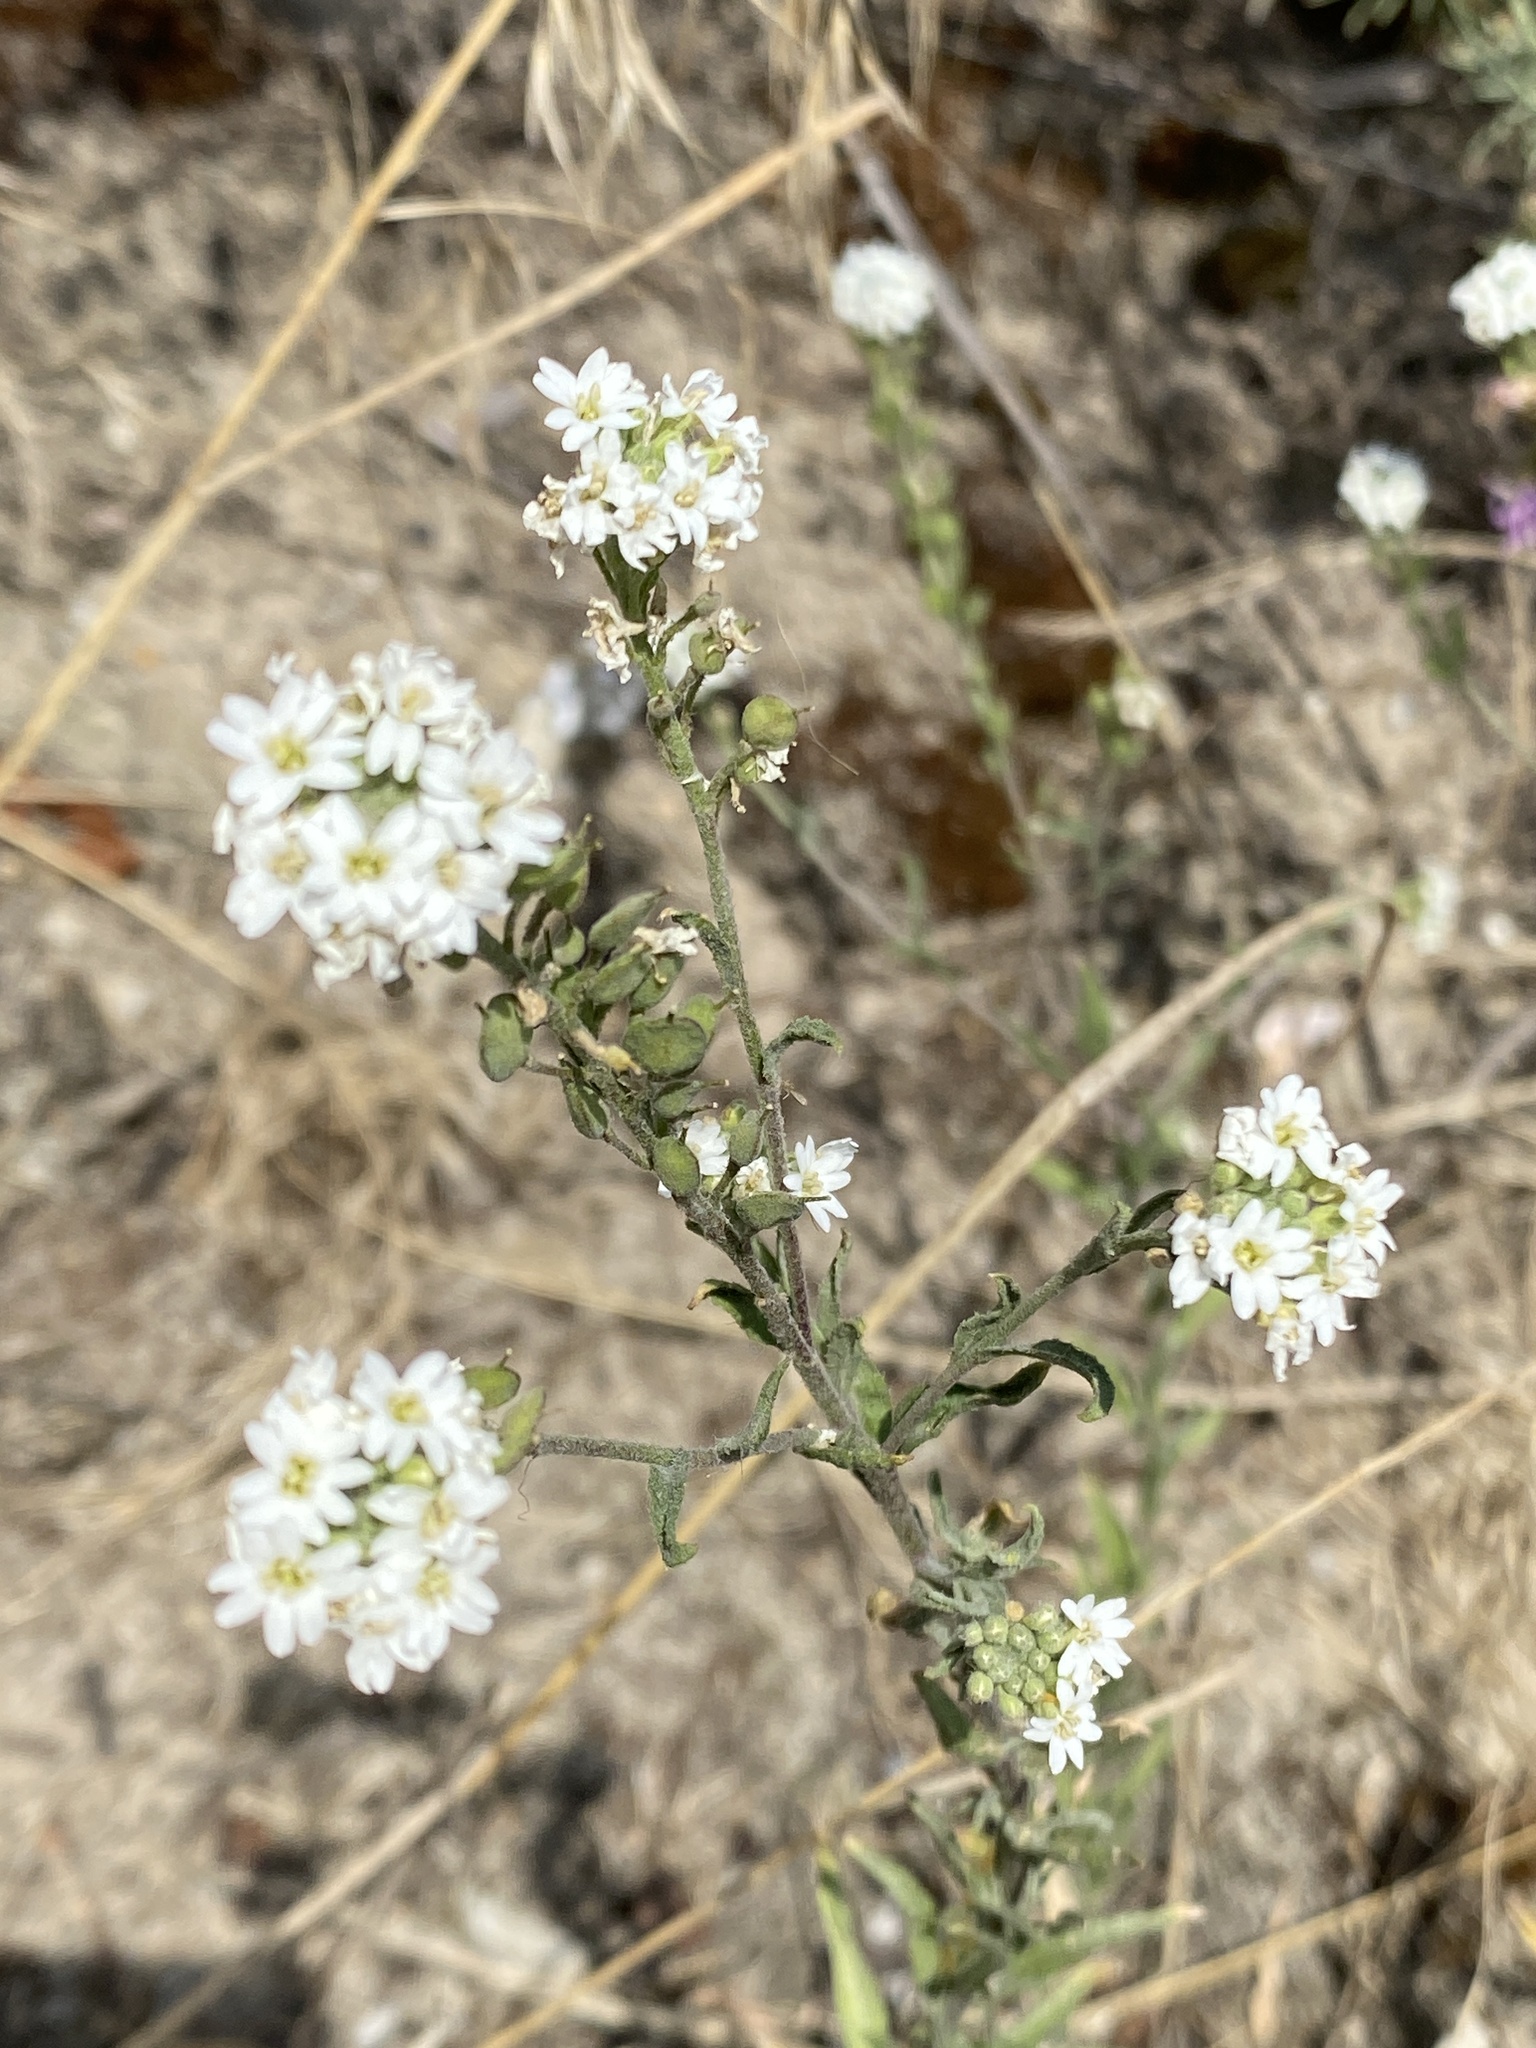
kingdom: Plantae
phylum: Tracheophyta
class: Magnoliopsida
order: Brassicales
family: Brassicaceae
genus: Berteroa
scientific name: Berteroa incana
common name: Hoary alison
